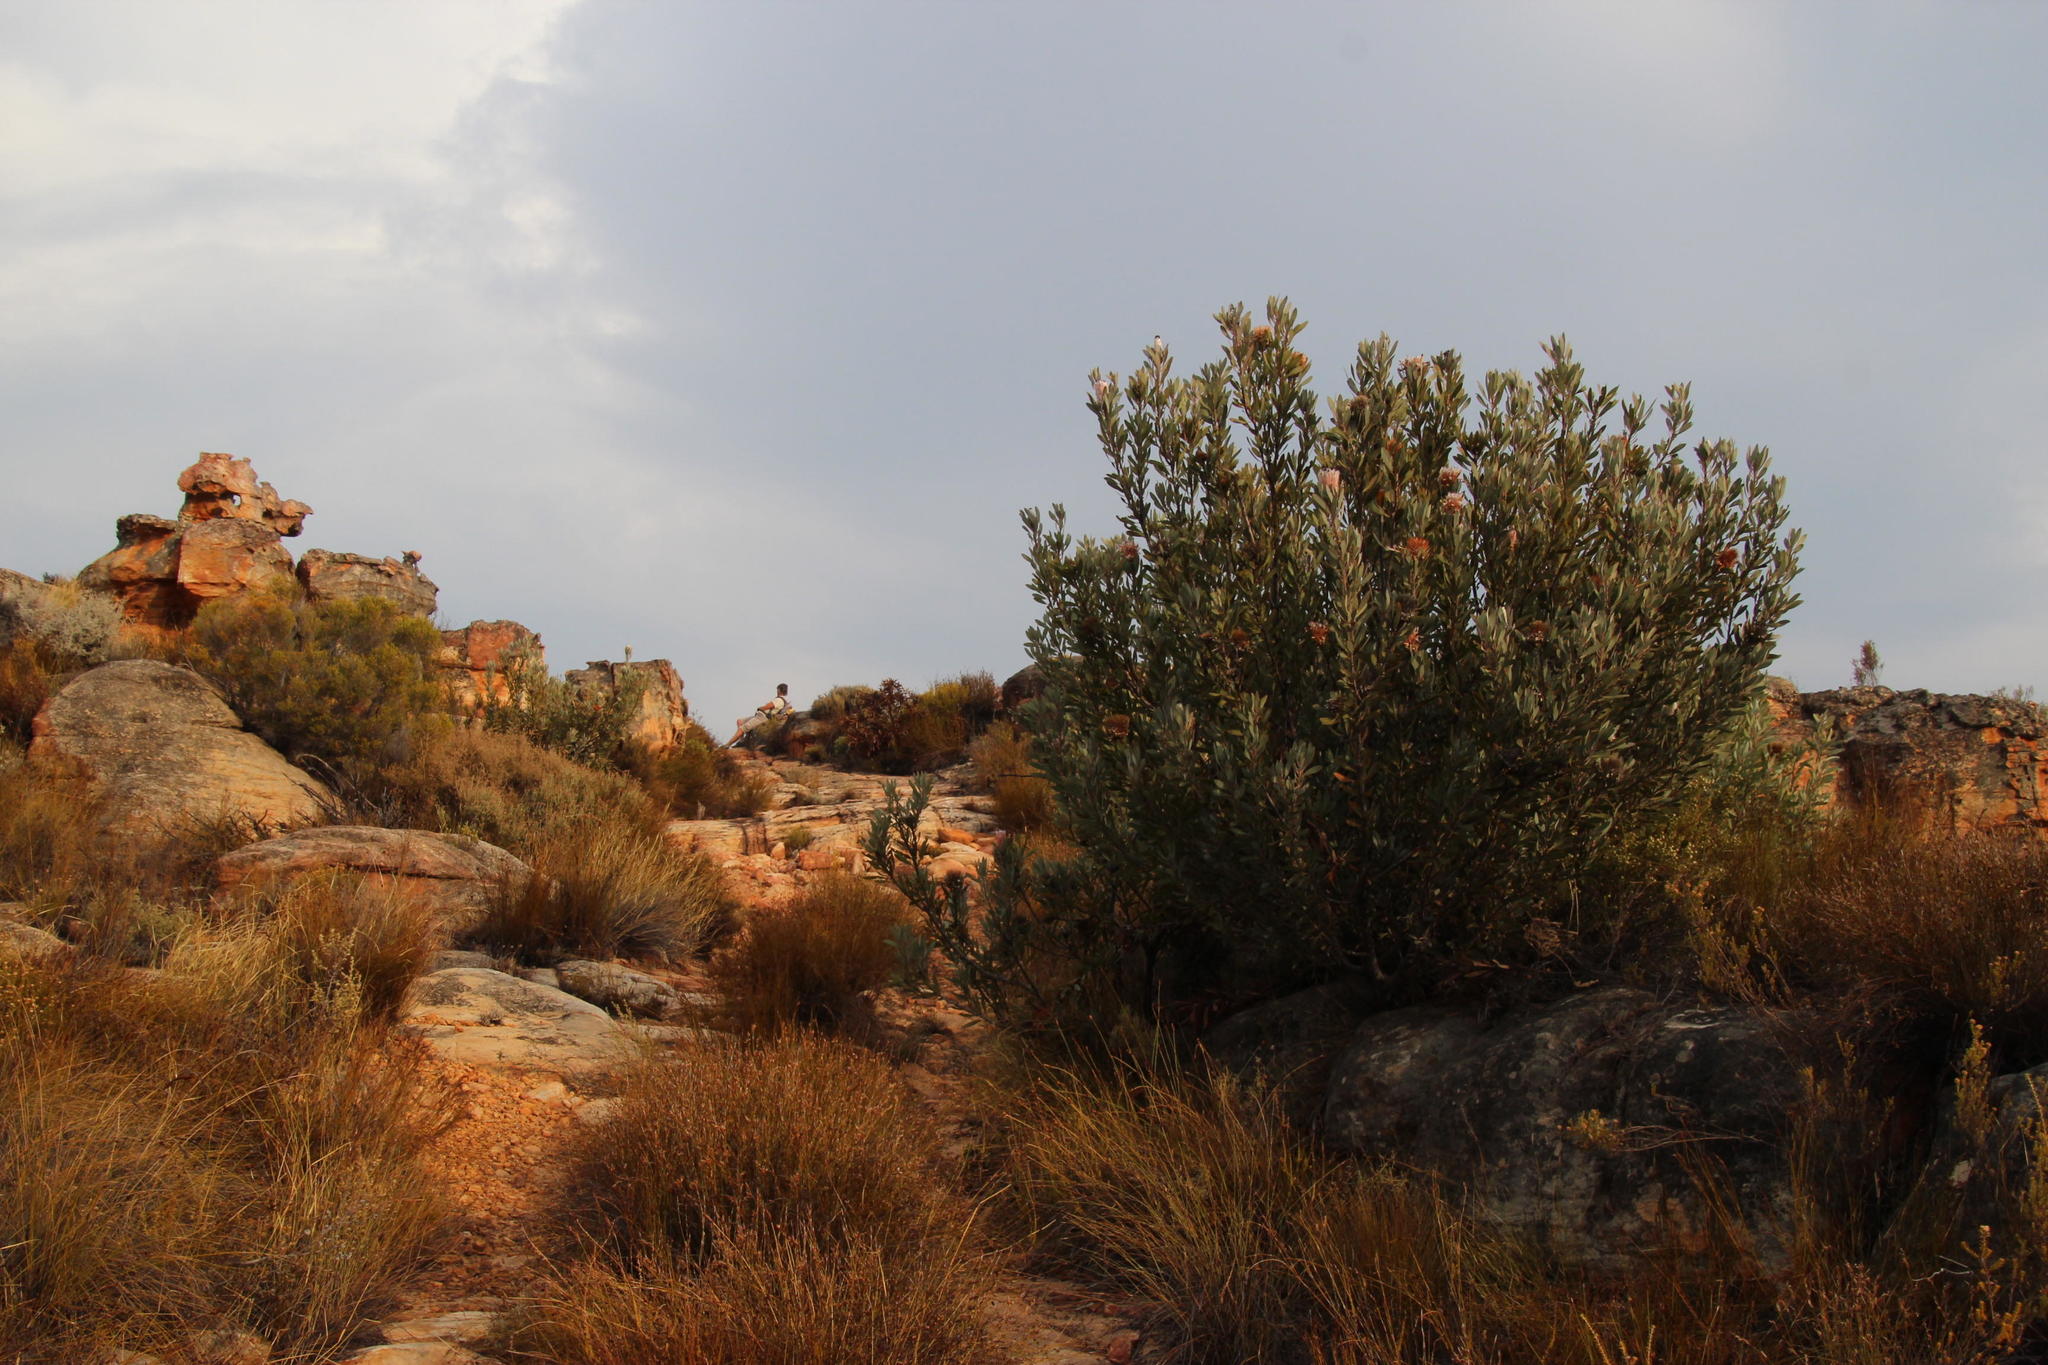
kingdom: Plantae
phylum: Tracheophyta
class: Magnoliopsida
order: Proteales
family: Proteaceae
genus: Protea
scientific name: Protea laurifolia
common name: Grey-leaf sugarbsh
